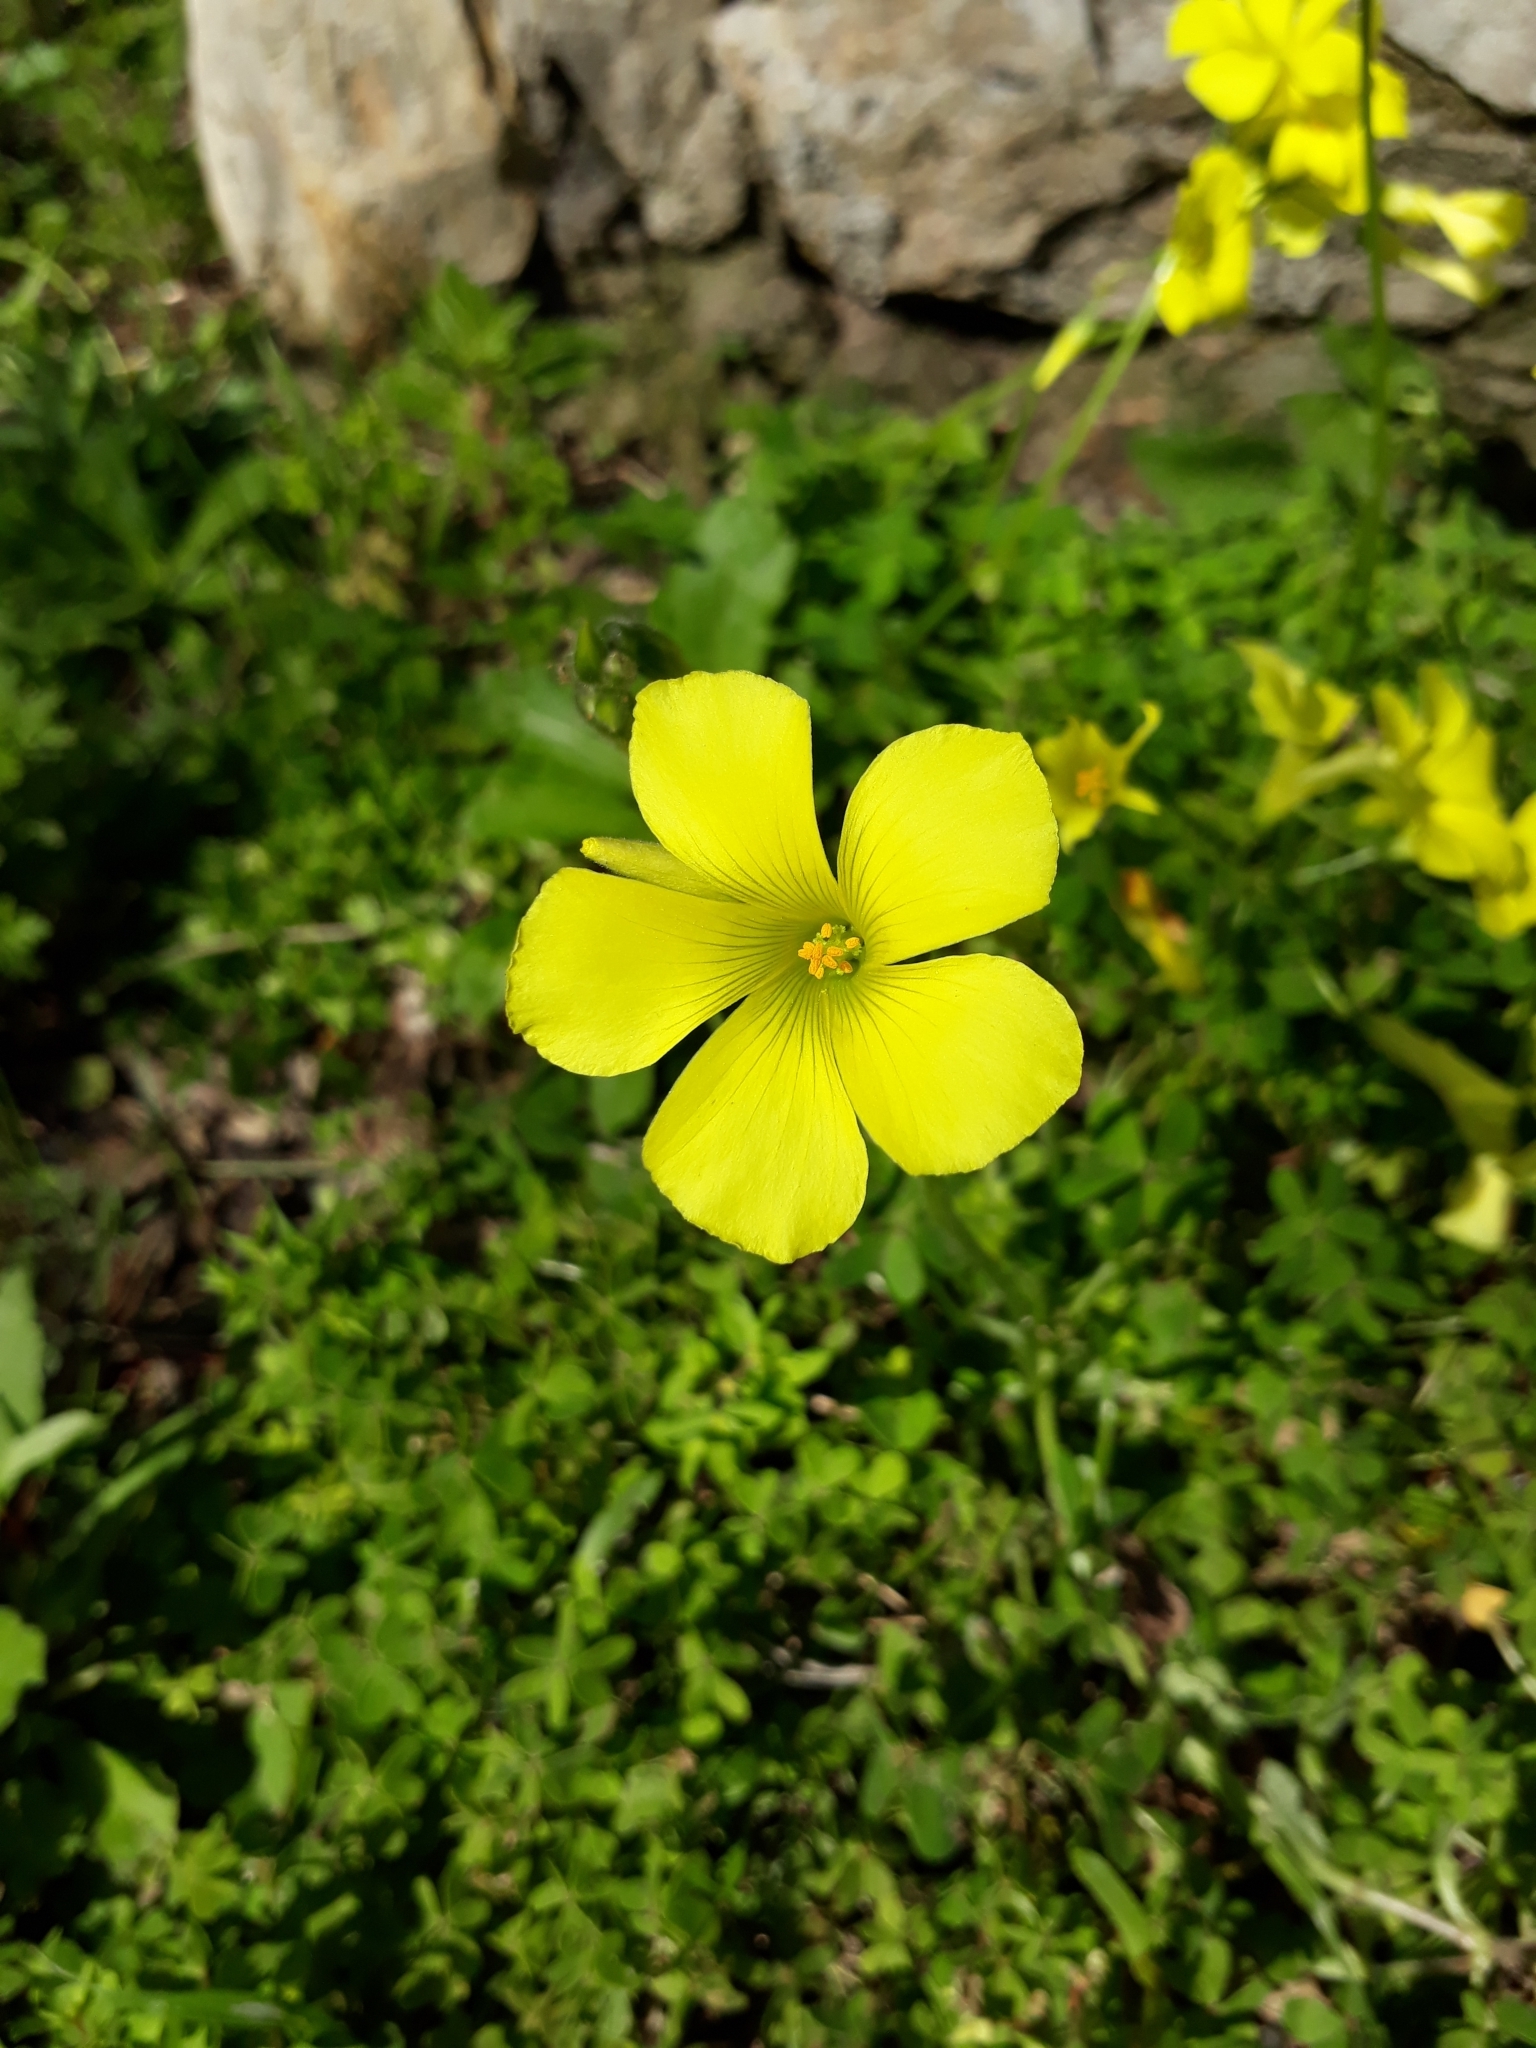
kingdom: Plantae
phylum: Tracheophyta
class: Magnoliopsida
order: Oxalidales
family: Oxalidaceae
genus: Oxalis
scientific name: Oxalis pes-caprae
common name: Bermuda-buttercup
